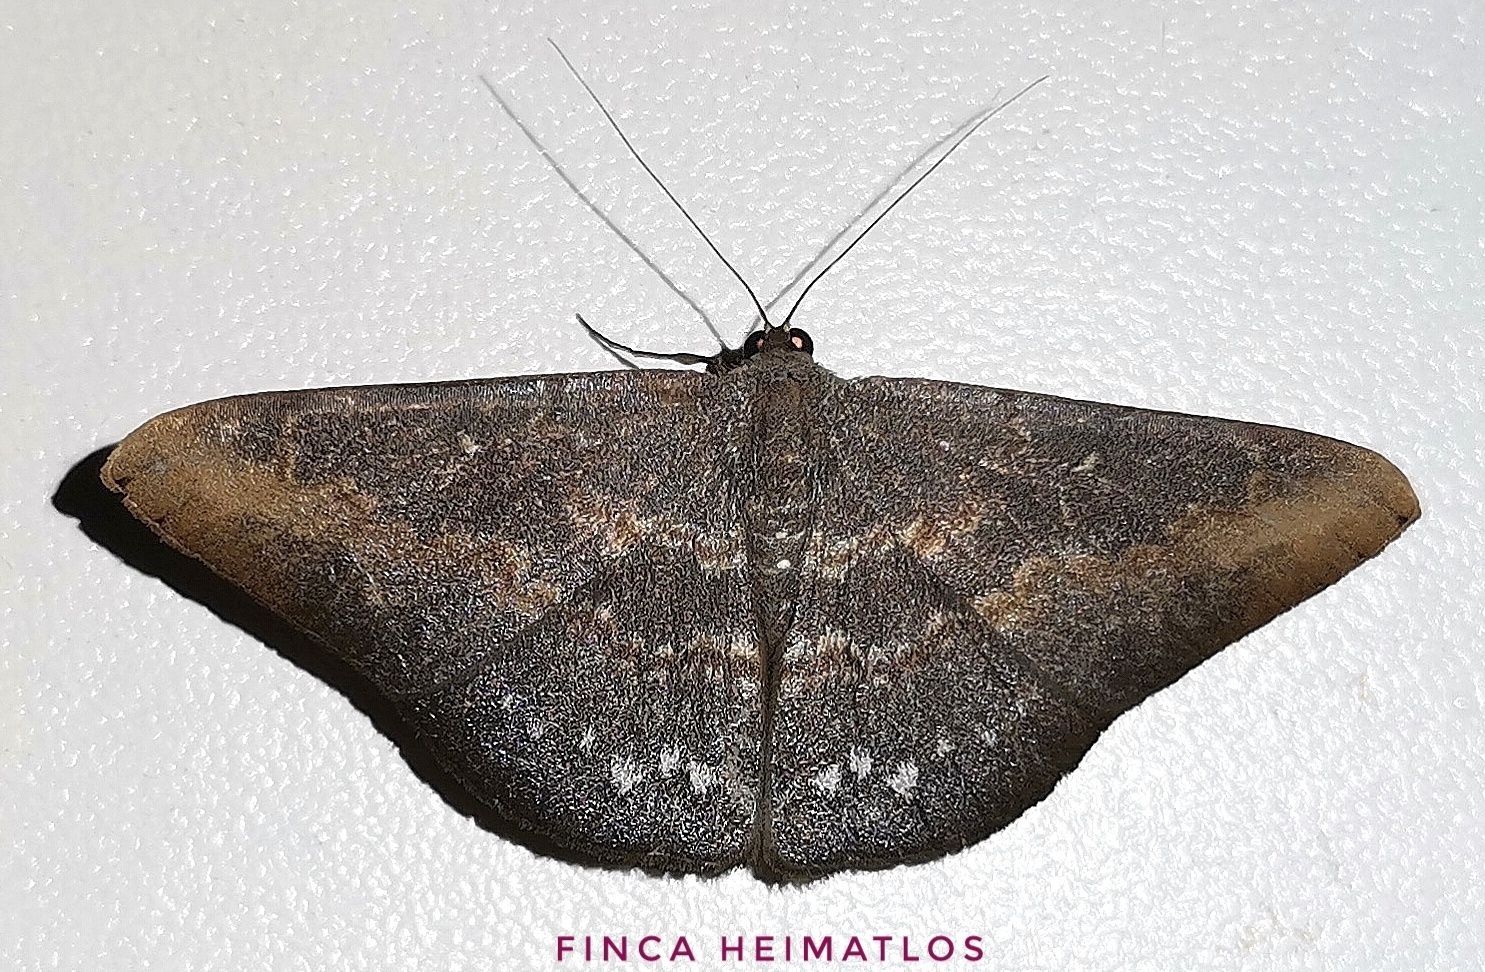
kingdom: Animalia
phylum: Arthropoda
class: Insecta
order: Lepidoptera
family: Geometridae
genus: Dolichoneura
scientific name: Dolichoneura oxypteraria
